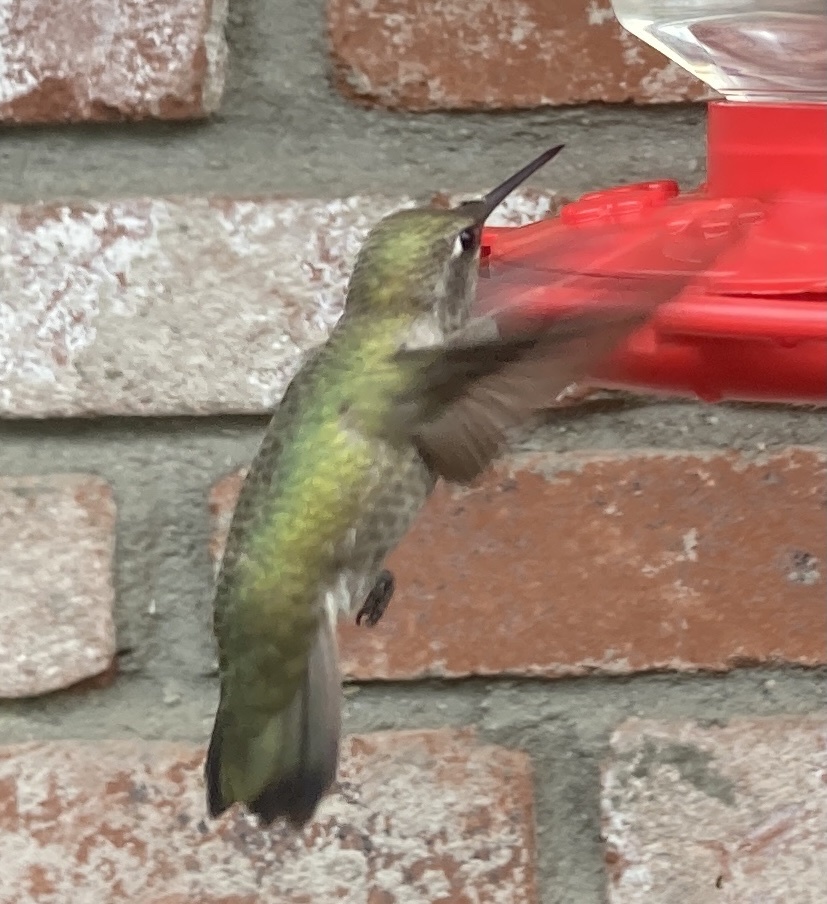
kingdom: Animalia
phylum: Chordata
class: Aves
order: Apodiformes
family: Trochilidae
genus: Calypte
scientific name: Calypte anna
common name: Anna's hummingbird
